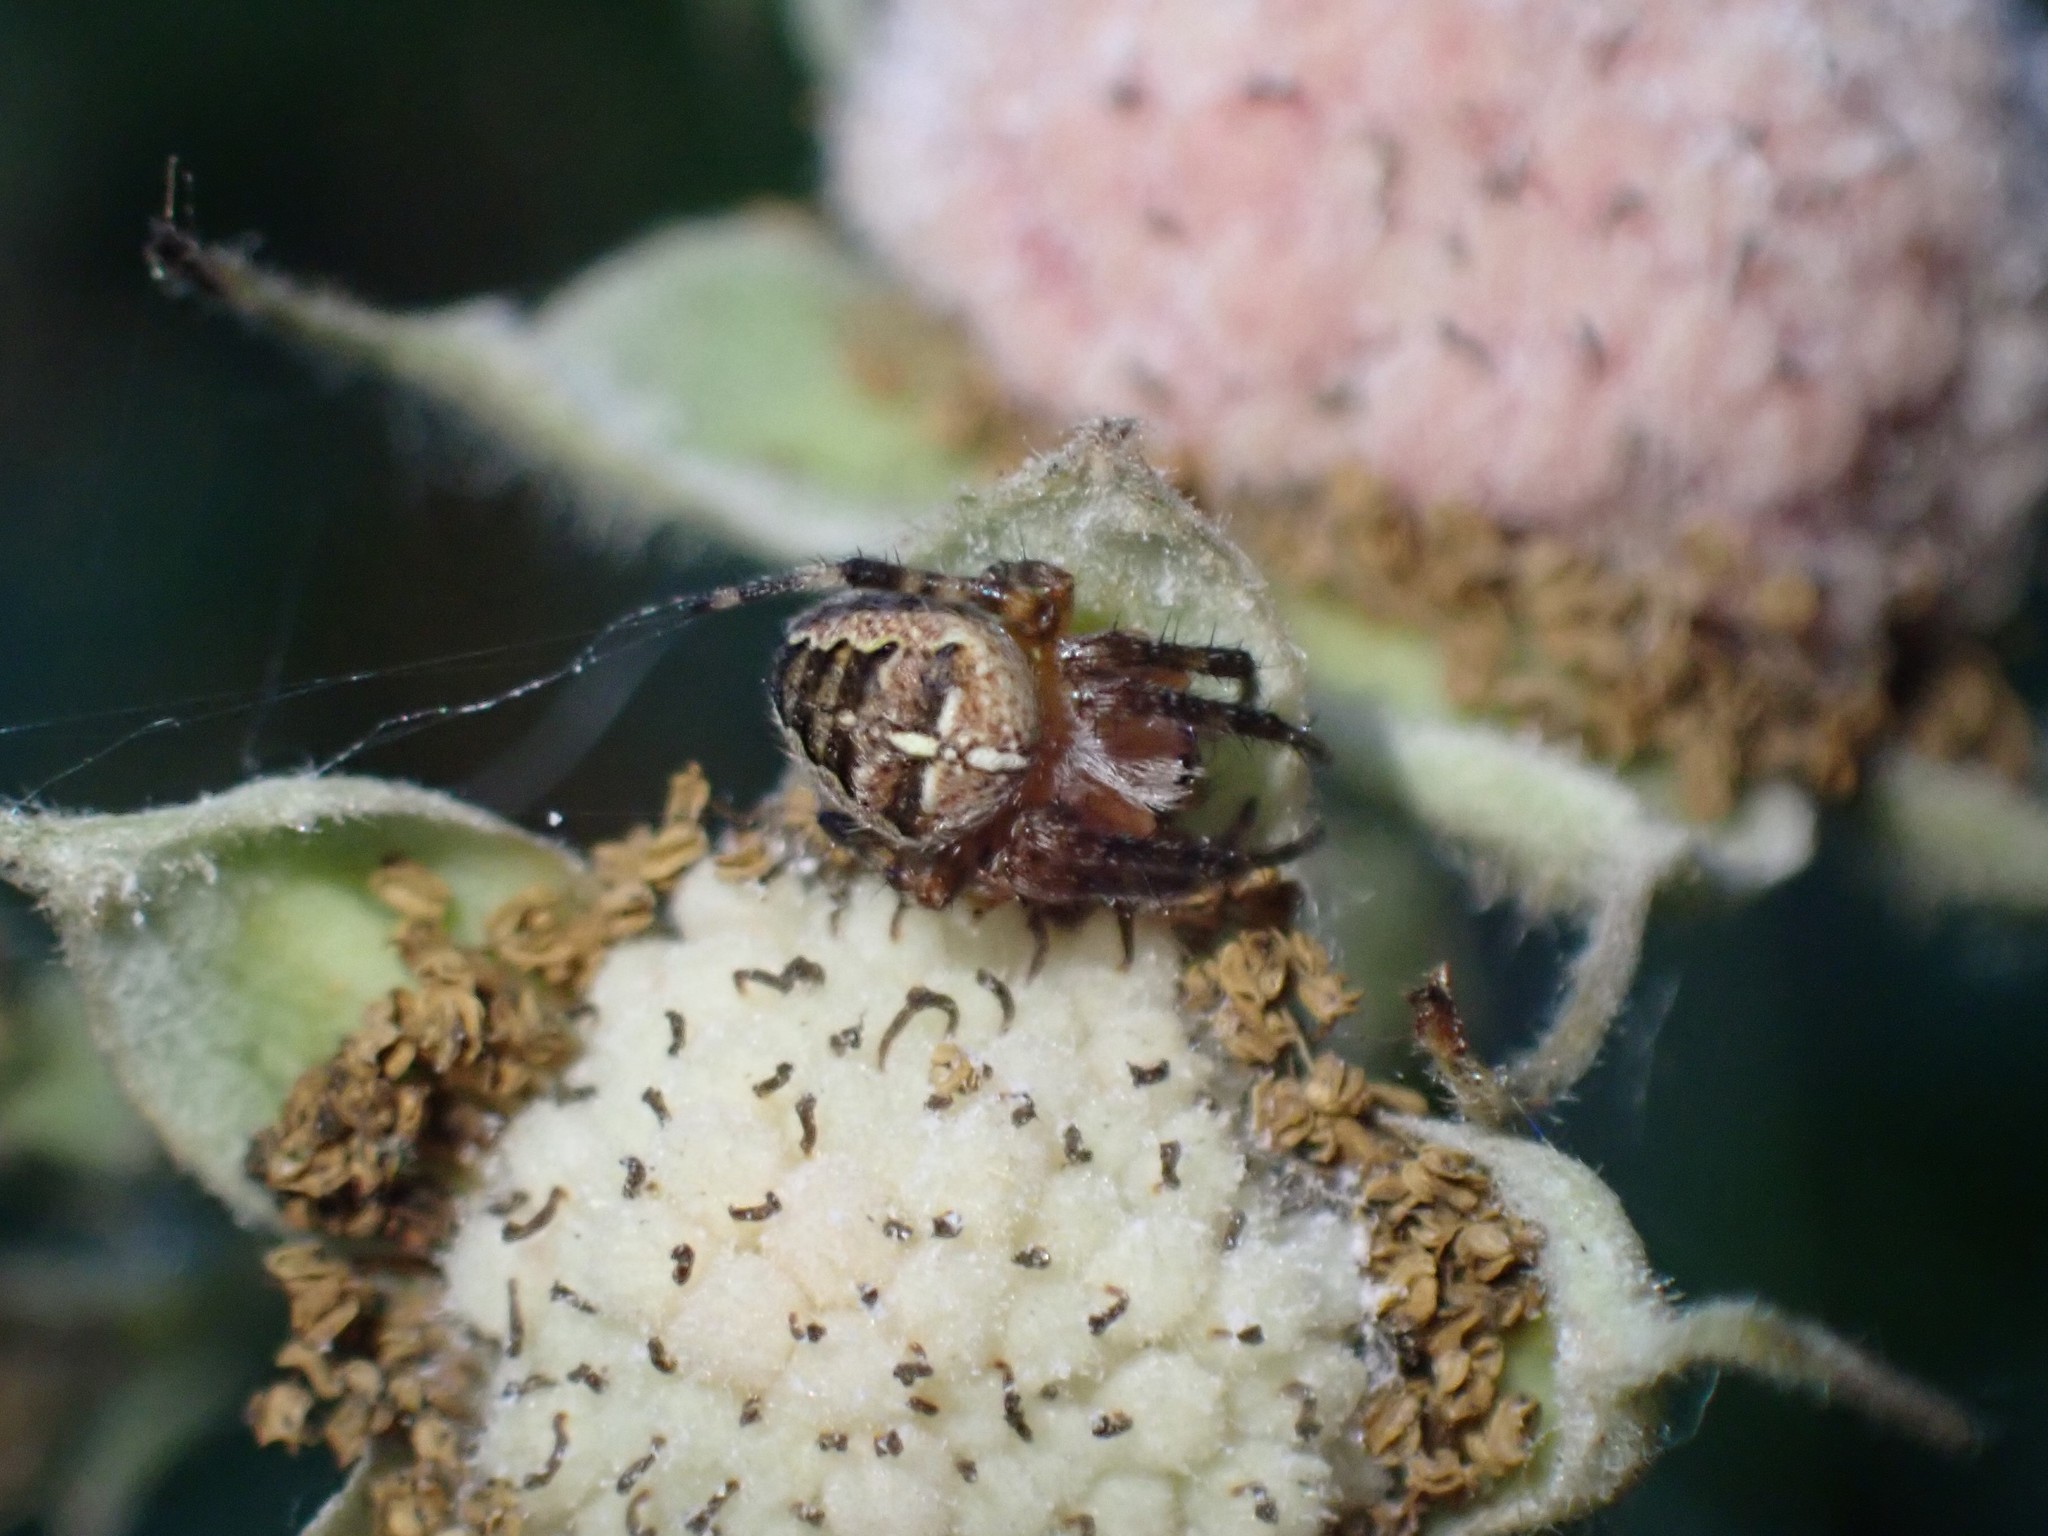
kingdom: Animalia
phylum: Arthropoda
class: Arachnida
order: Araneae
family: Araneidae
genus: Araneus
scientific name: Araneus diadematus
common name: Cross orbweaver
